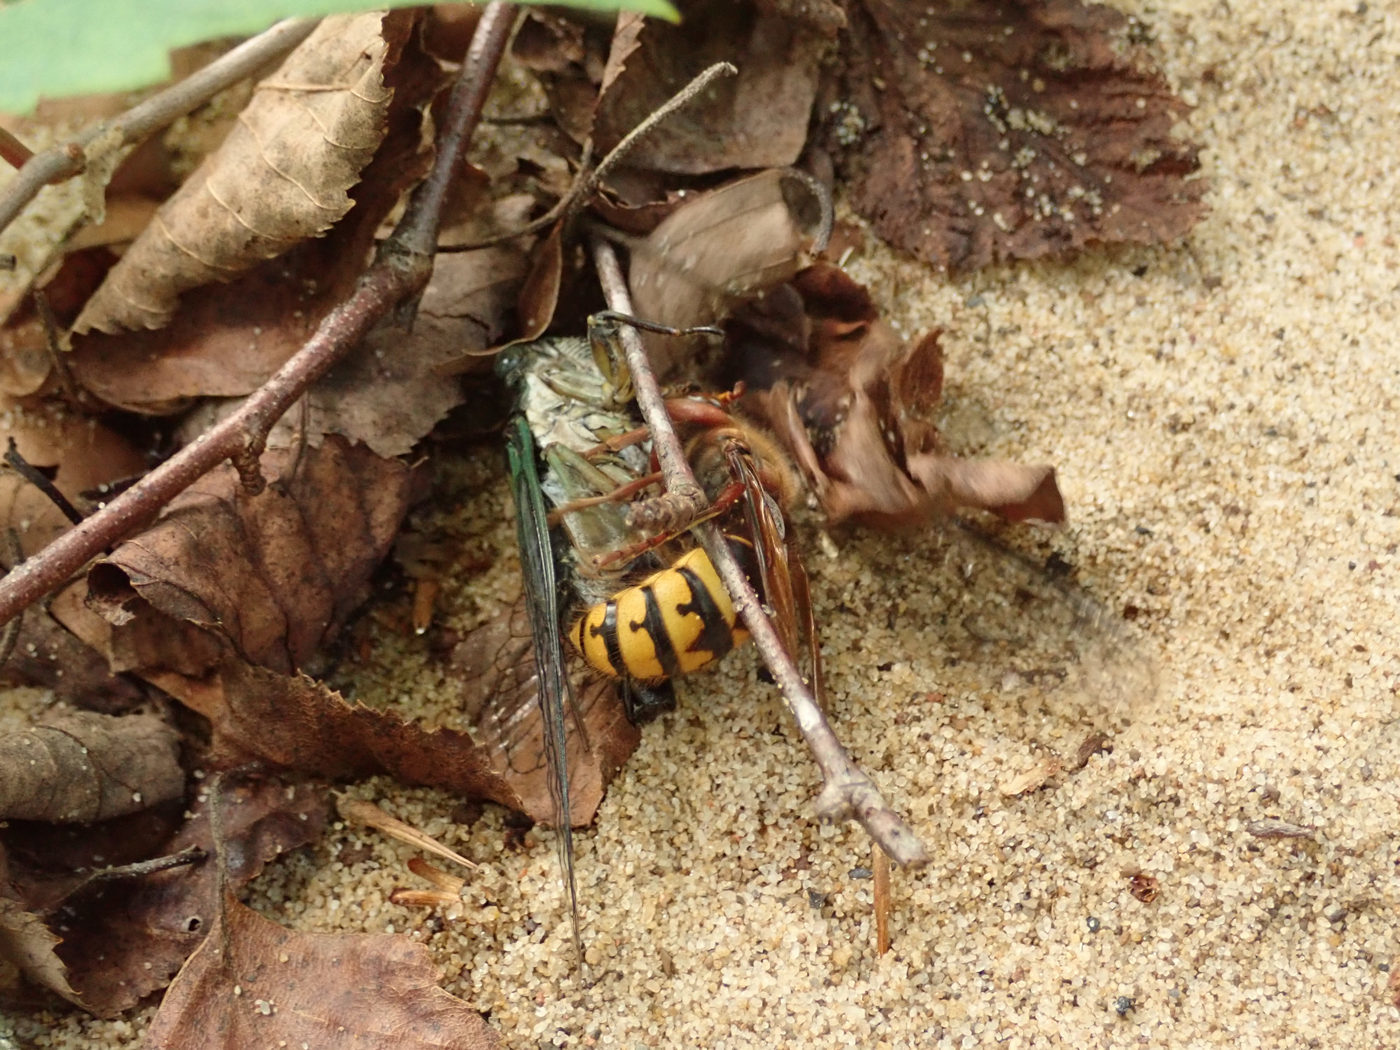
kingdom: Animalia
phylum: Arthropoda
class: Insecta
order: Hymenoptera
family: Vespidae
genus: Vespa
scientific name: Vespa crabro
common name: Hornet
